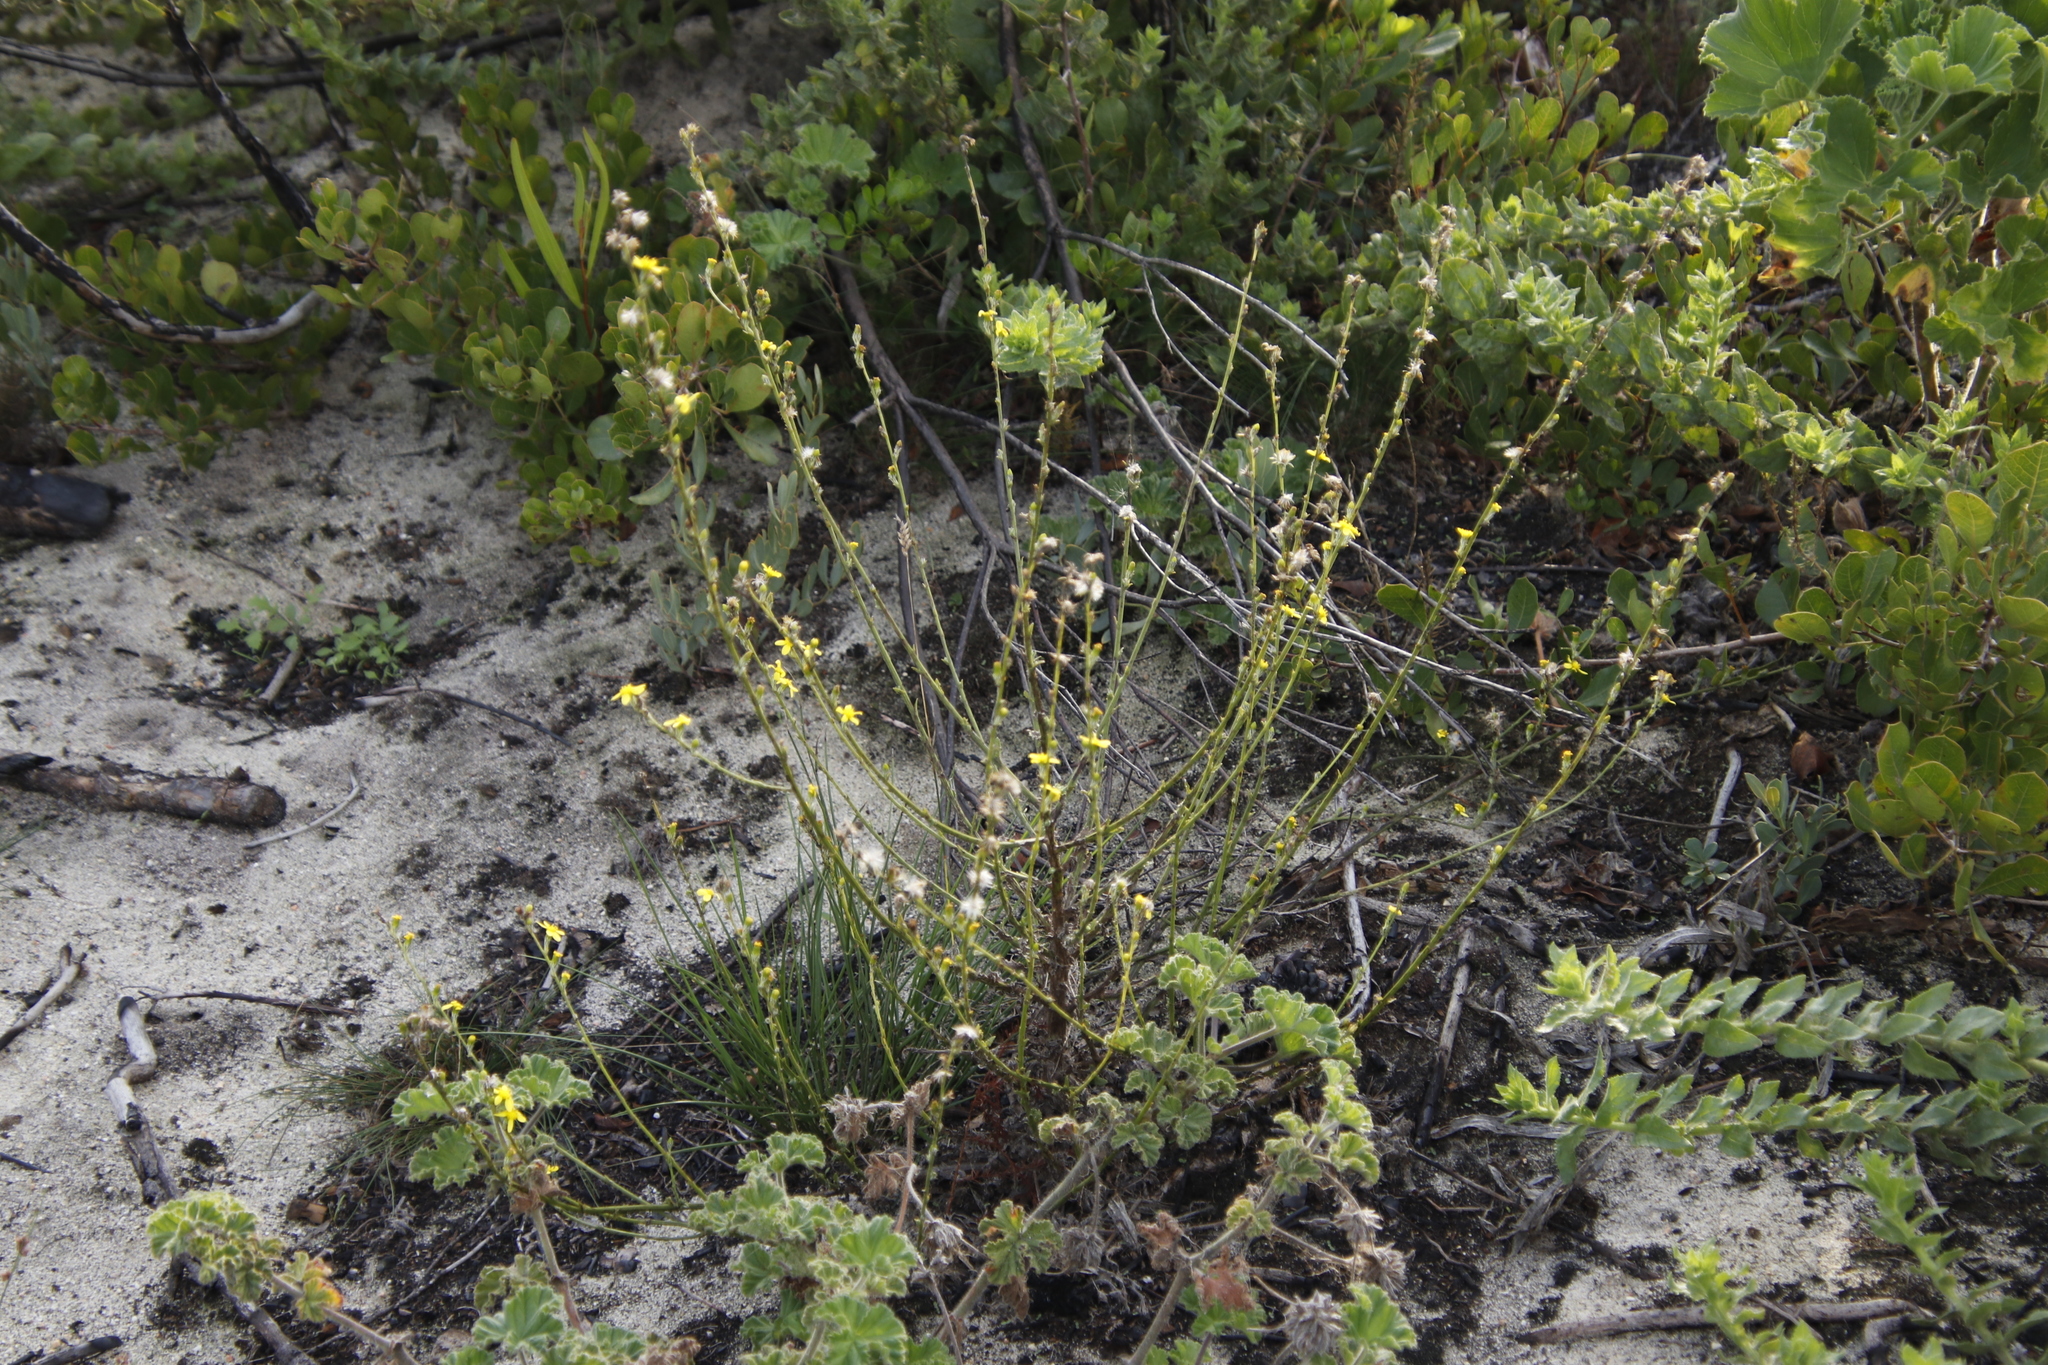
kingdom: Plantae
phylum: Tracheophyta
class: Magnoliopsida
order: Asterales
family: Asteraceae
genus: Senecio
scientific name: Senecio pubigerus
